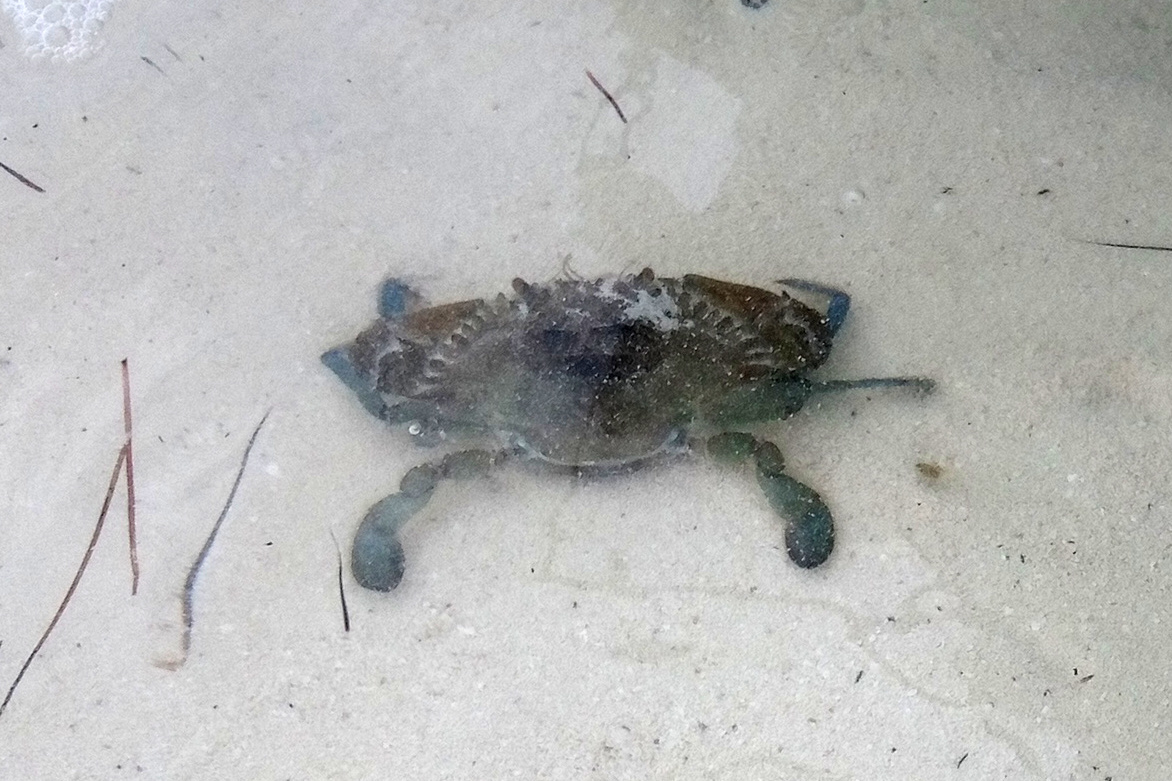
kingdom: Animalia
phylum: Arthropoda
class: Malacostraca
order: Decapoda
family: Portunidae
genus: Callinectes
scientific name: Callinectes exasperatus
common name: Rugose swimming crab
